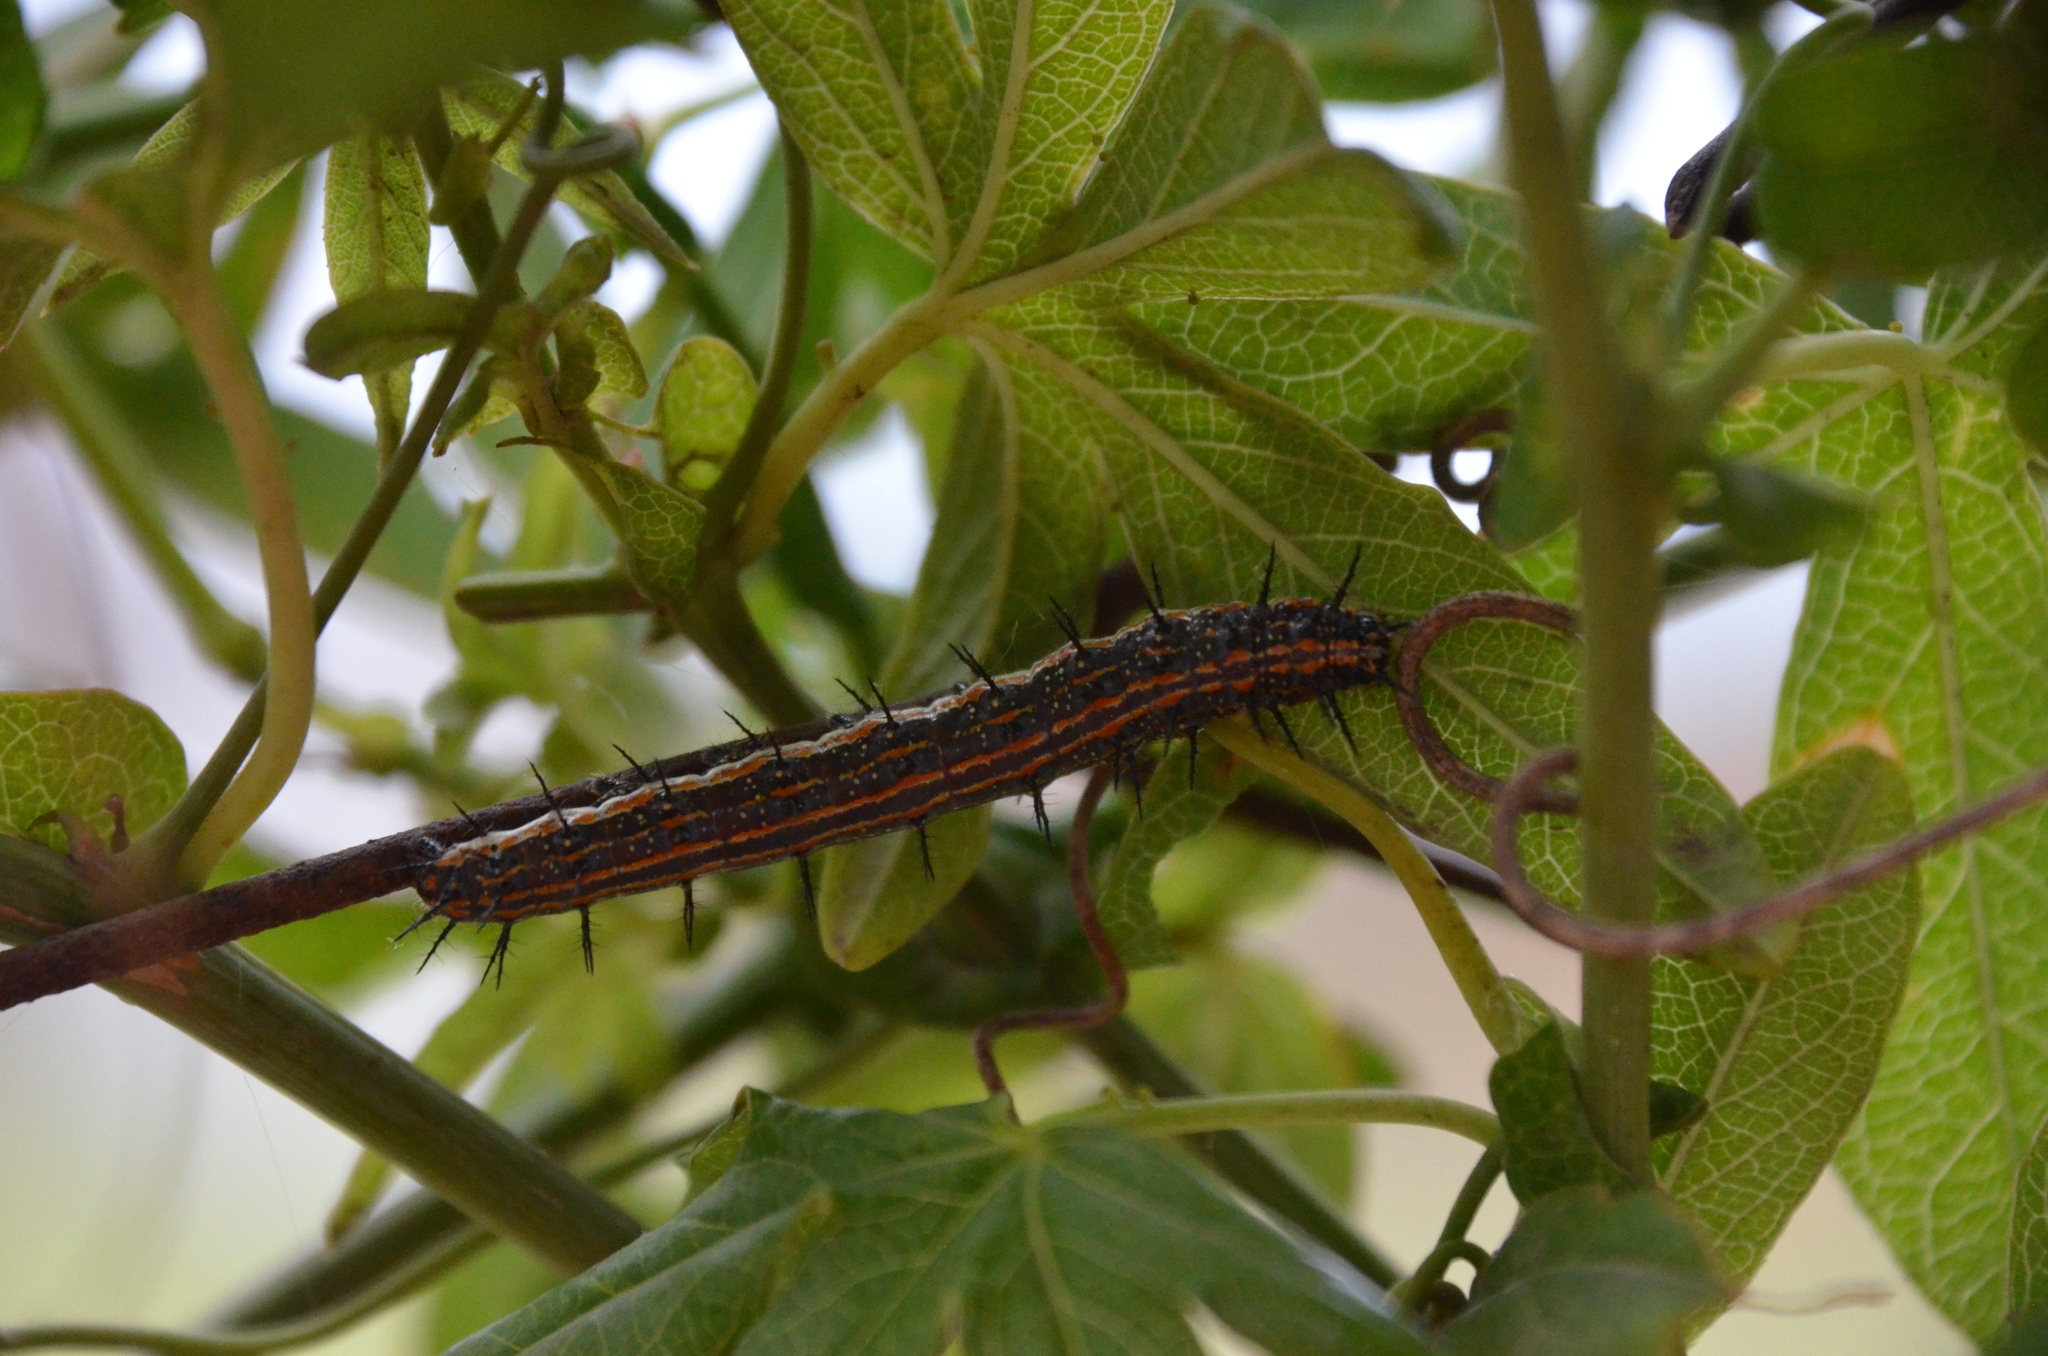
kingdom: Animalia
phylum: Arthropoda
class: Insecta
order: Lepidoptera
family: Nymphalidae
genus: Dione
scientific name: Dione vanillae
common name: Gulf fritillary
